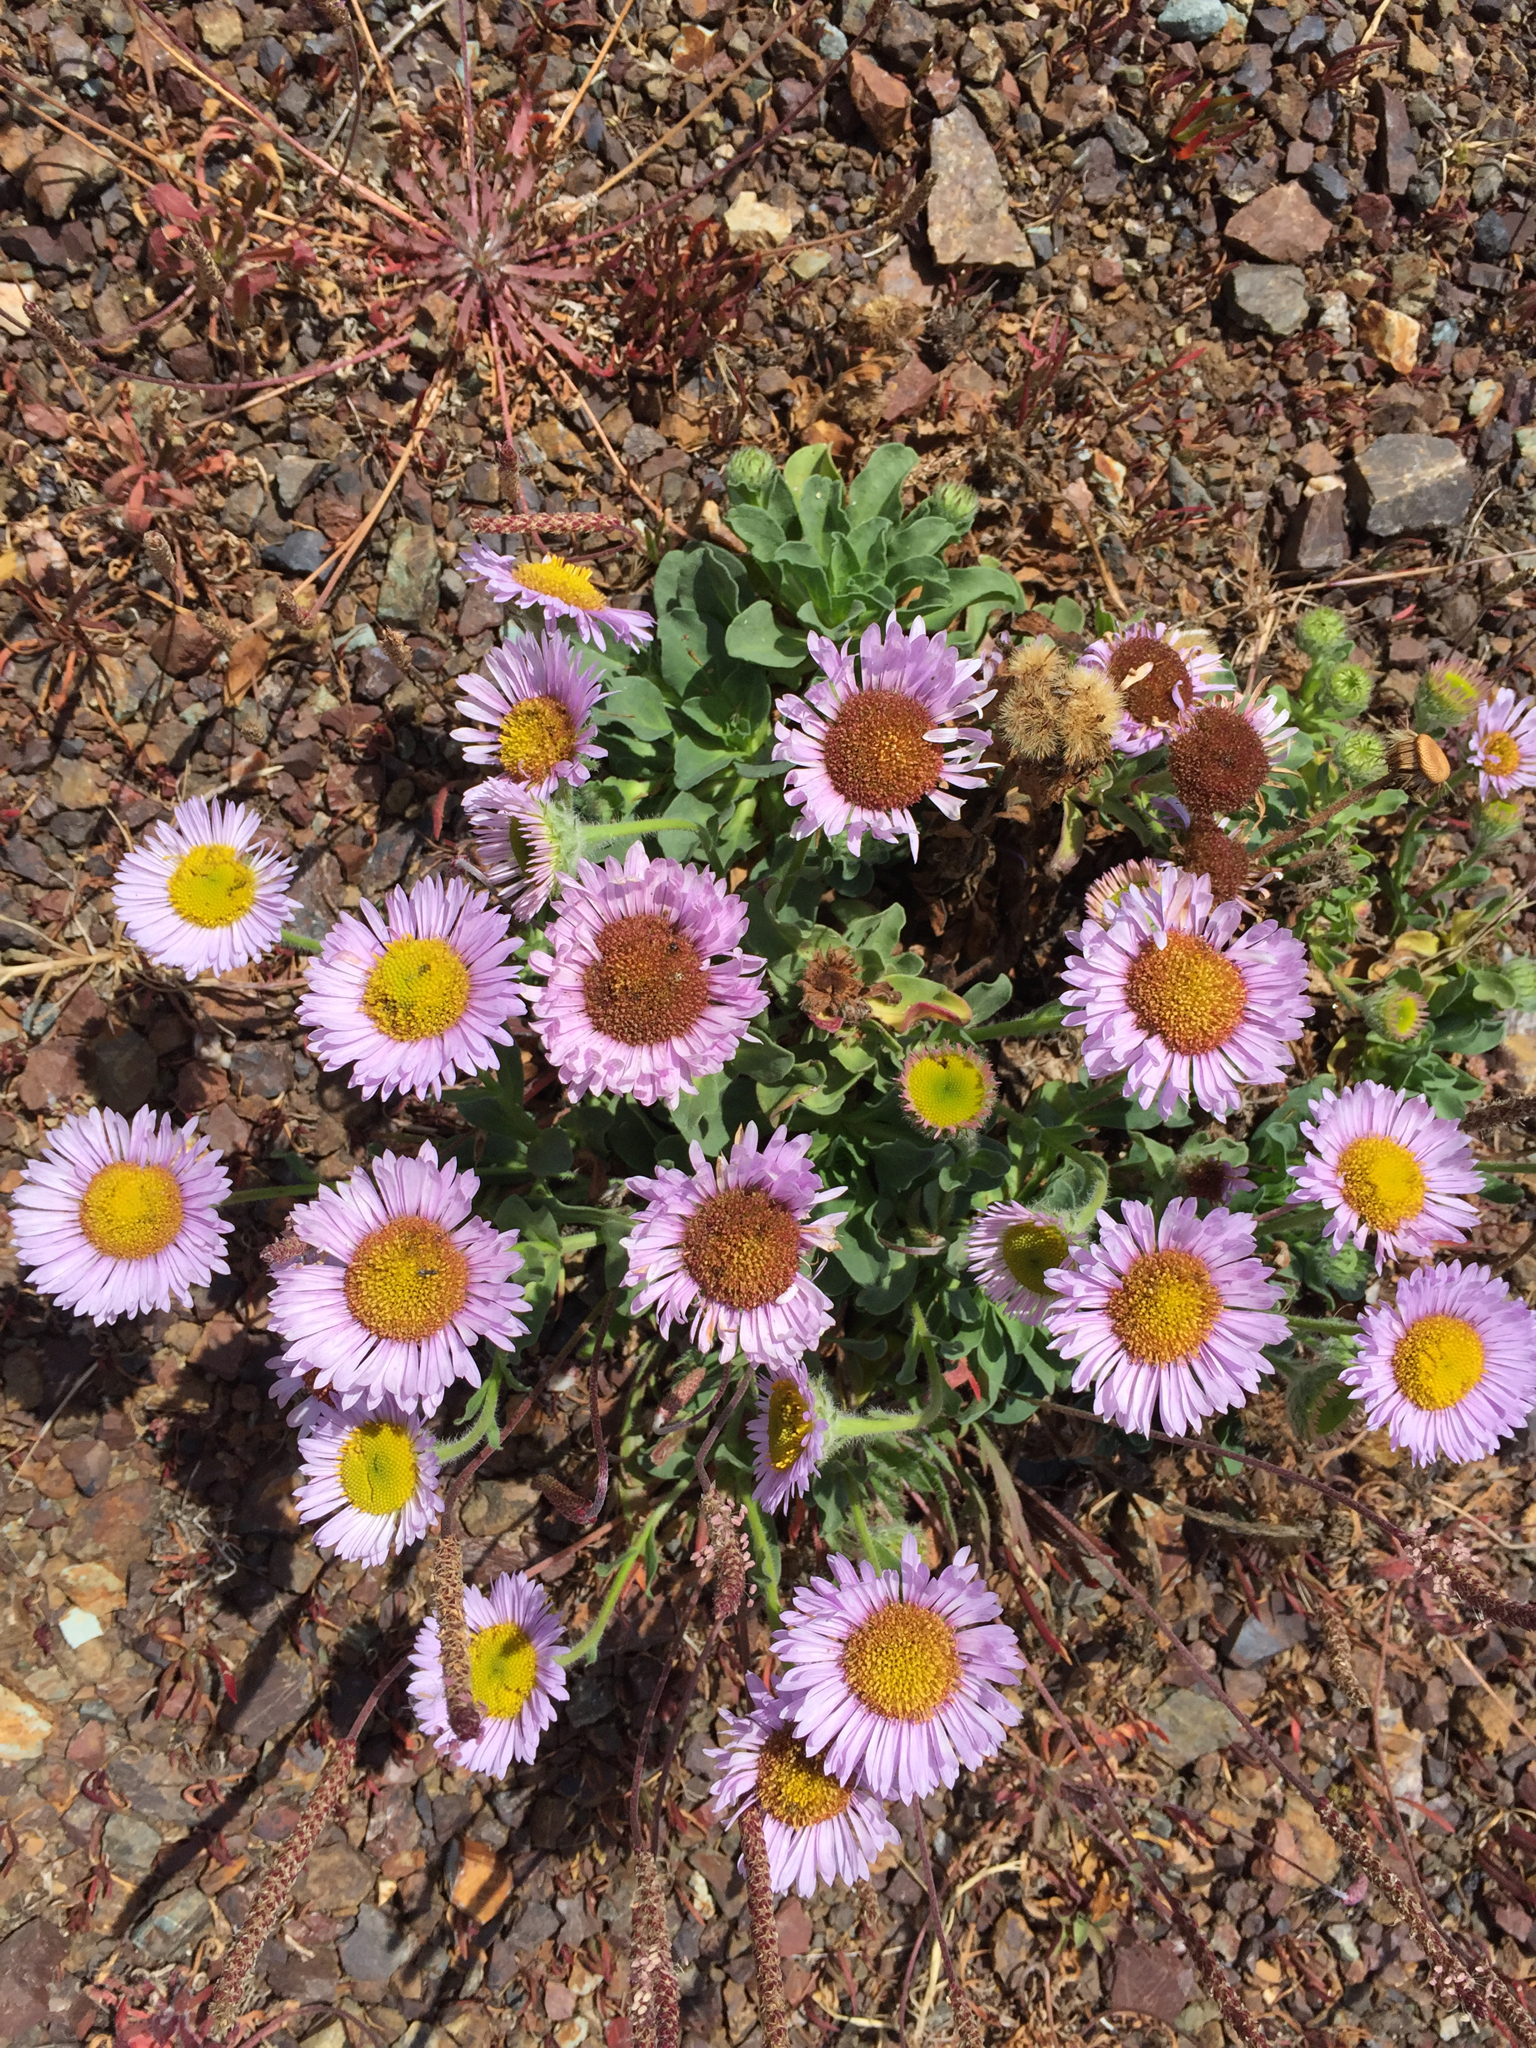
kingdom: Plantae
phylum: Tracheophyta
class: Magnoliopsida
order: Asterales
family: Asteraceae
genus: Erigeron
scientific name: Erigeron glaucus
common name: Seaside daisy
